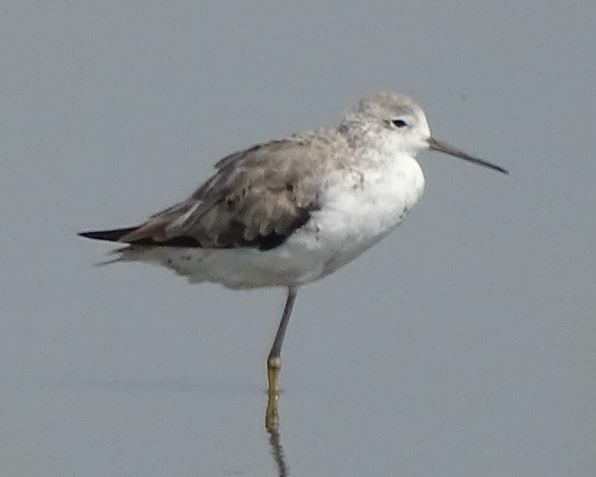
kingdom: Animalia
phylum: Chordata
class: Aves
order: Charadriiformes
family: Scolopacidae
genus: Tringa
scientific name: Tringa stagnatilis
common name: Marsh sandpiper
